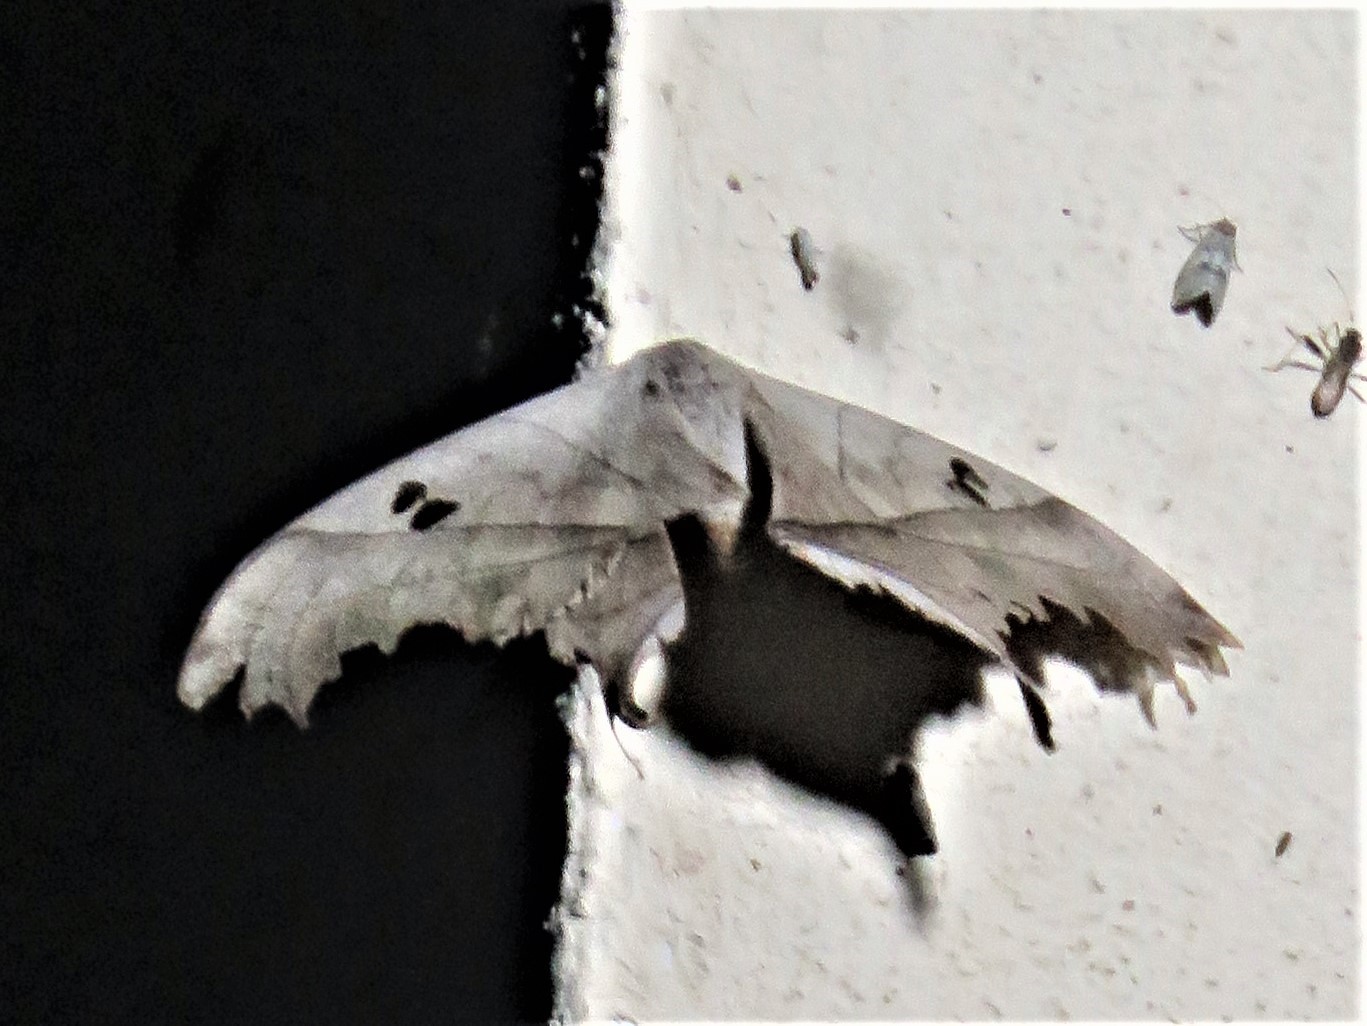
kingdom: Animalia
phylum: Arthropoda
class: Insecta
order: Lepidoptera
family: Saturniidae
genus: Dysdaemonia
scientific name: Dysdaemonia boreas
